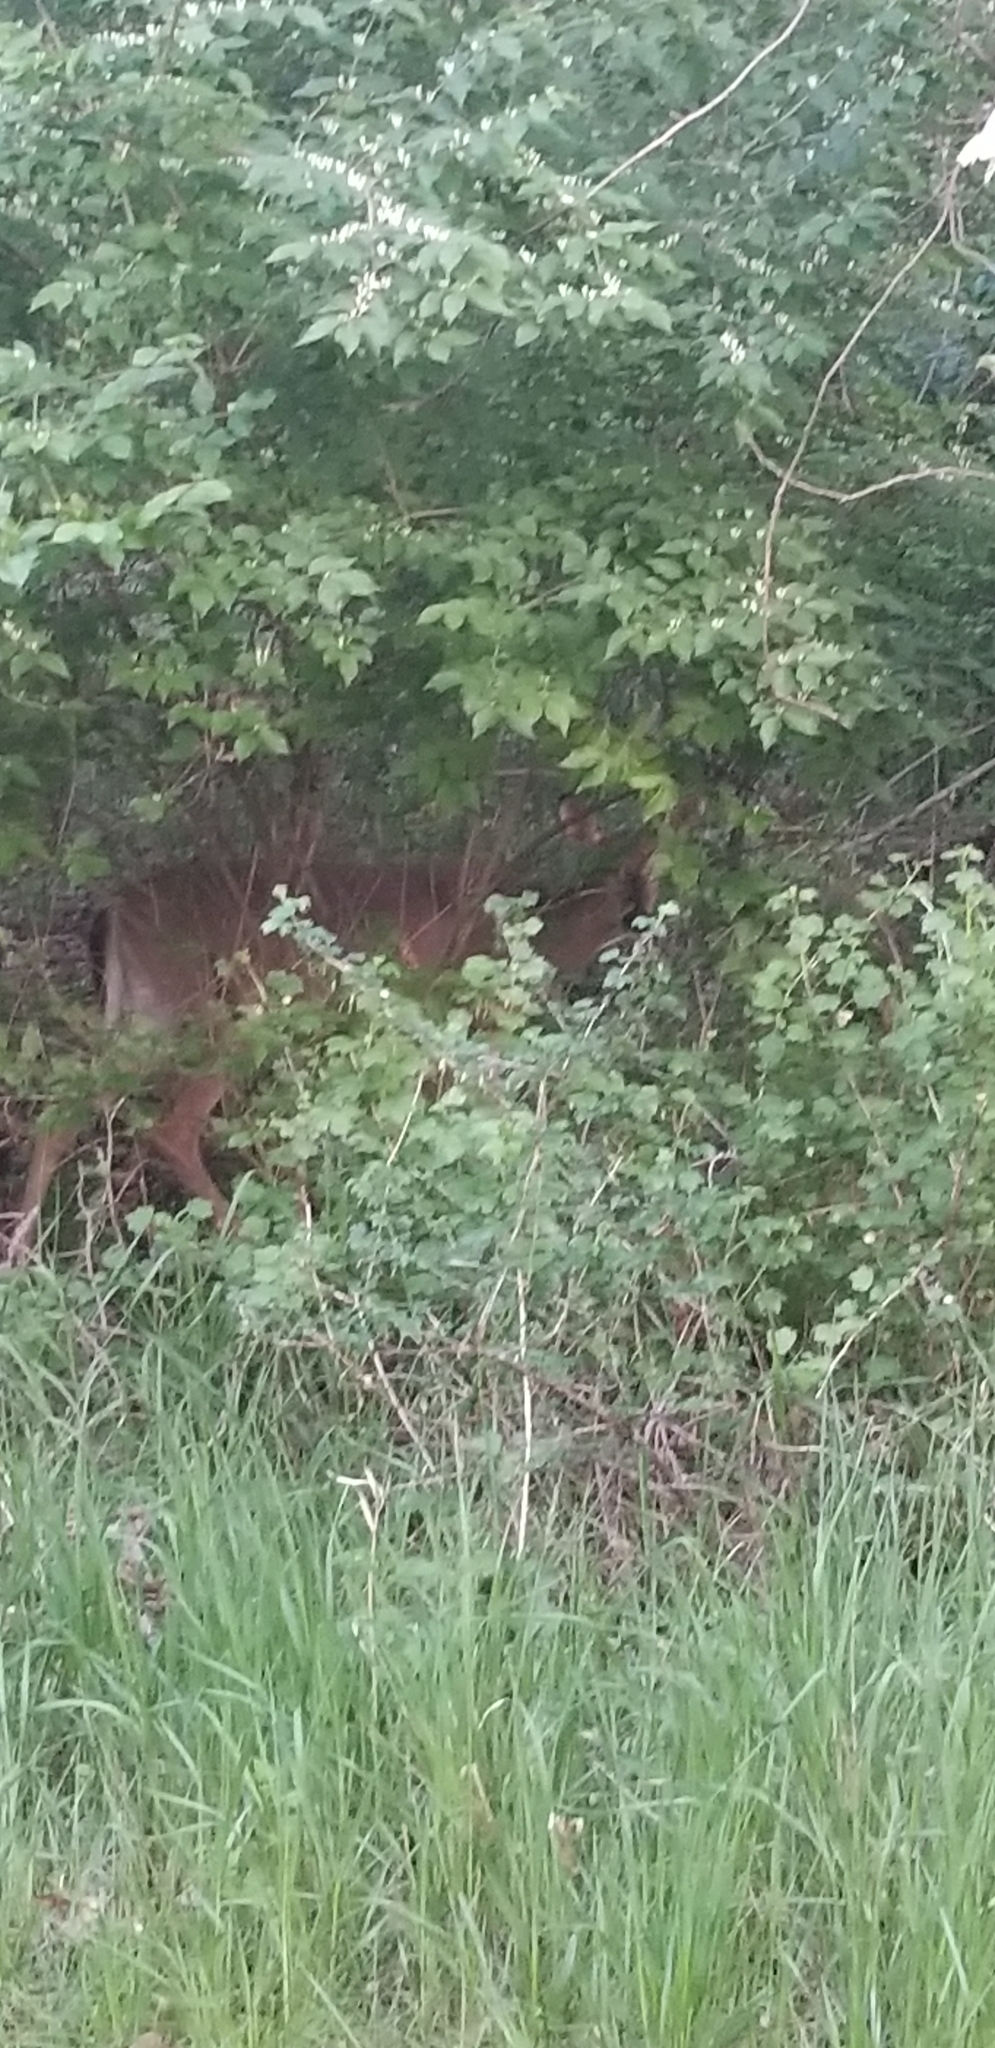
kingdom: Animalia
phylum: Chordata
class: Mammalia
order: Artiodactyla
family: Cervidae
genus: Odocoileus
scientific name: Odocoileus virginianus
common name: White-tailed deer
